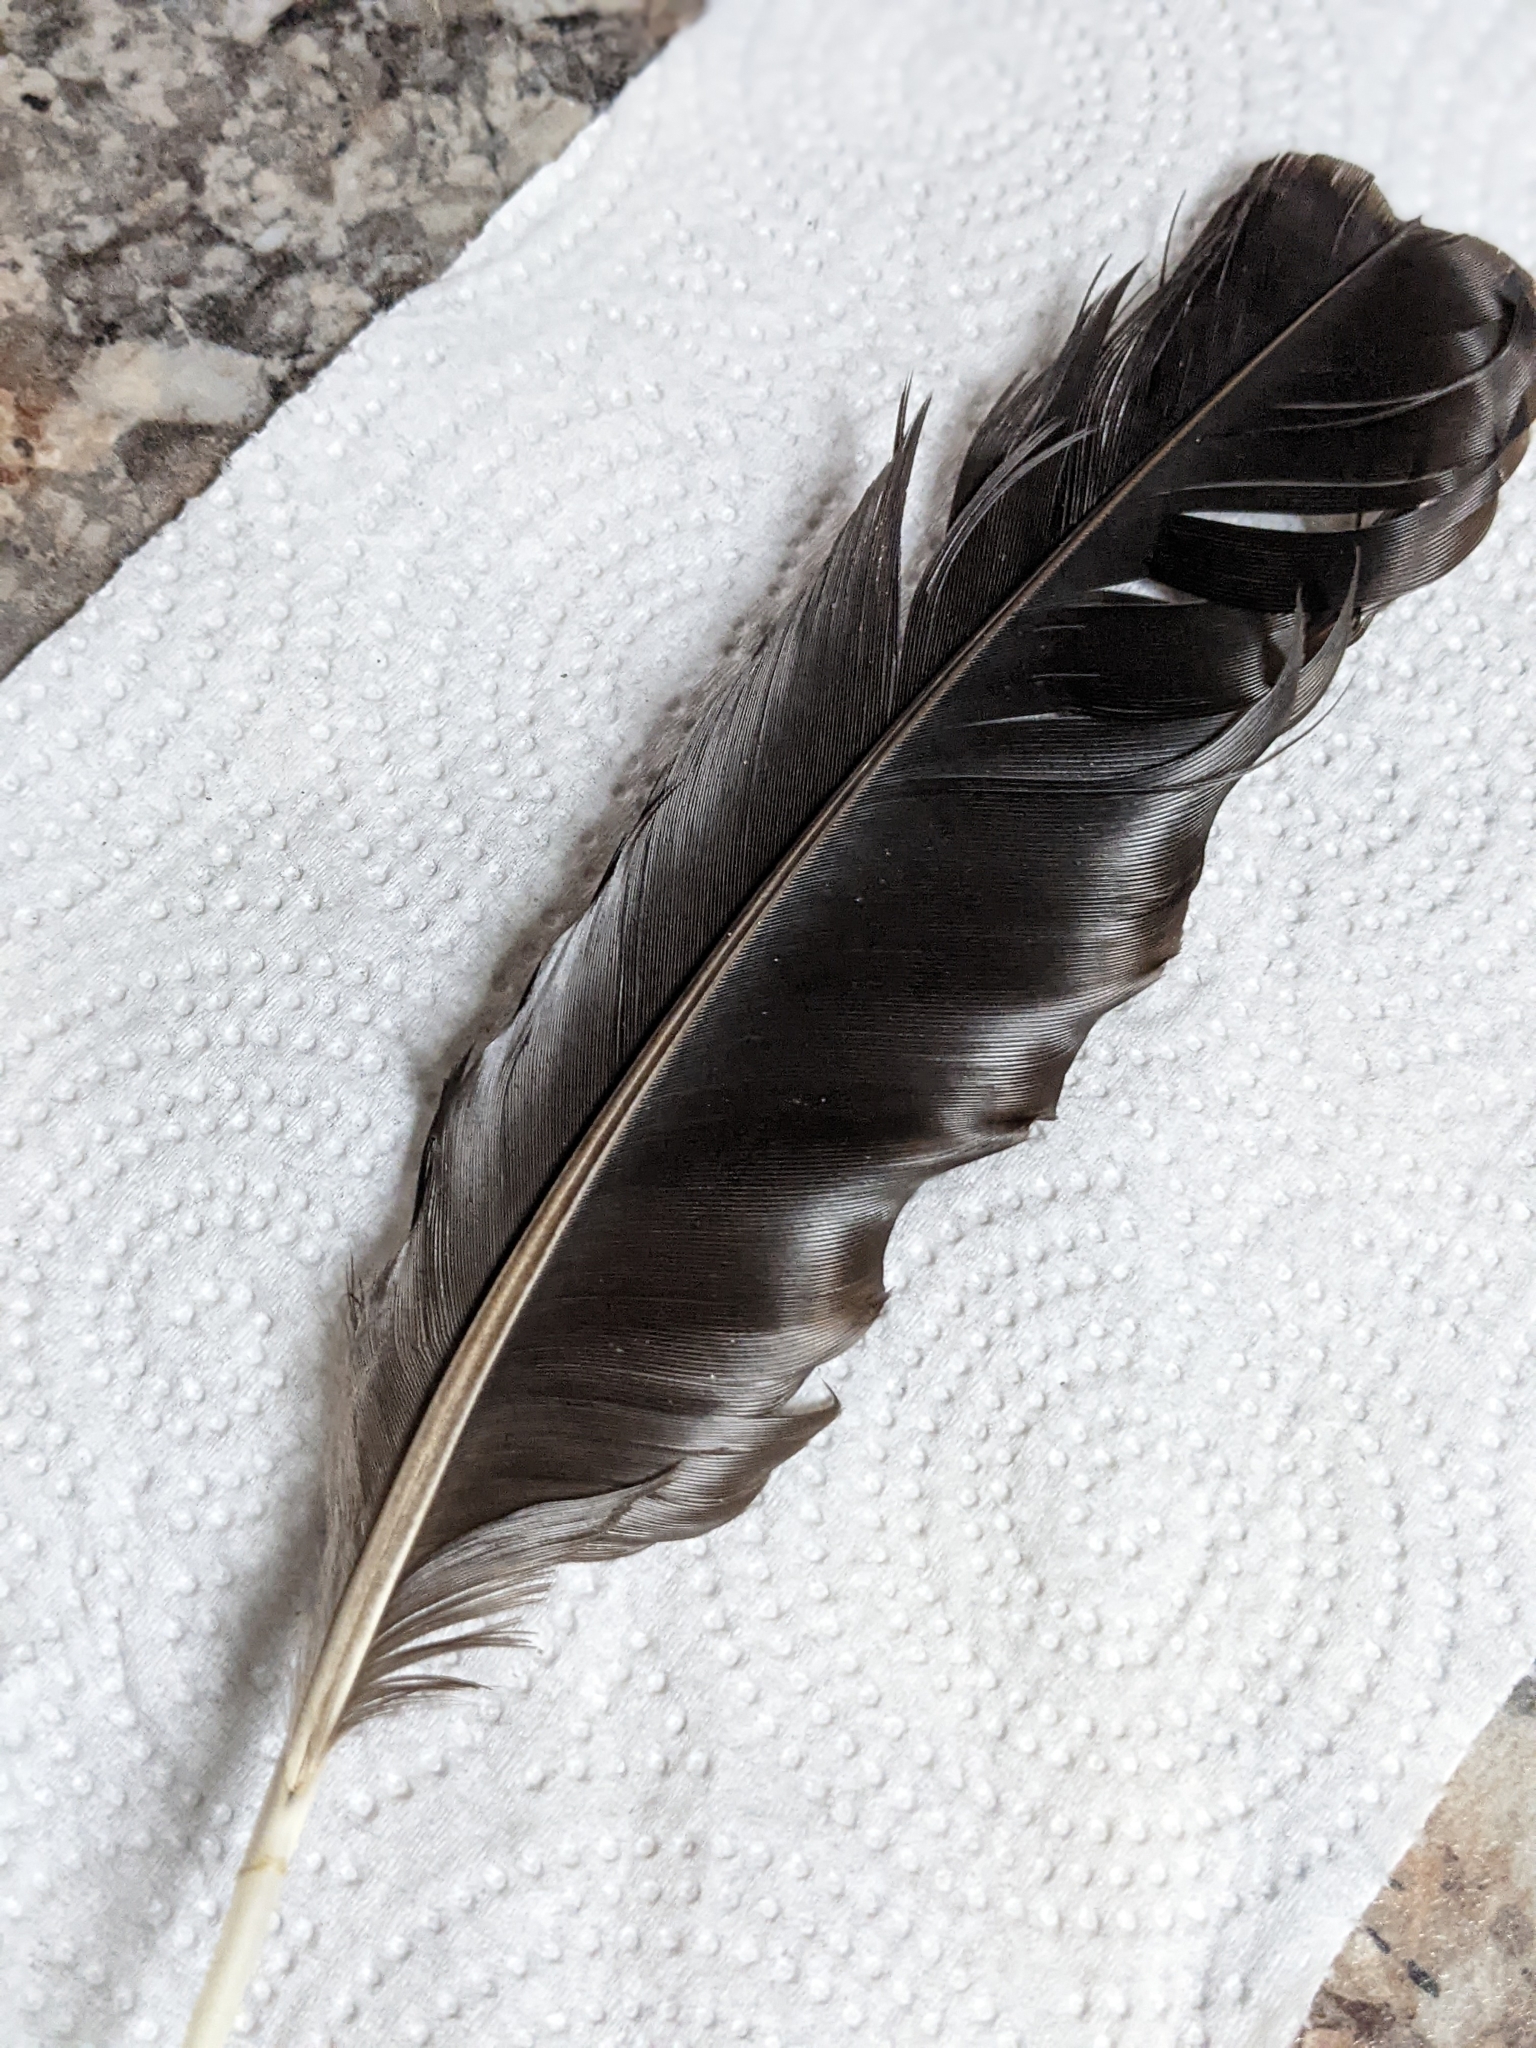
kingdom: Animalia
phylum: Chordata
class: Aves
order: Passeriformes
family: Corvidae
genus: Corvus
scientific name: Corvus brachyrhynchos
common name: American crow
